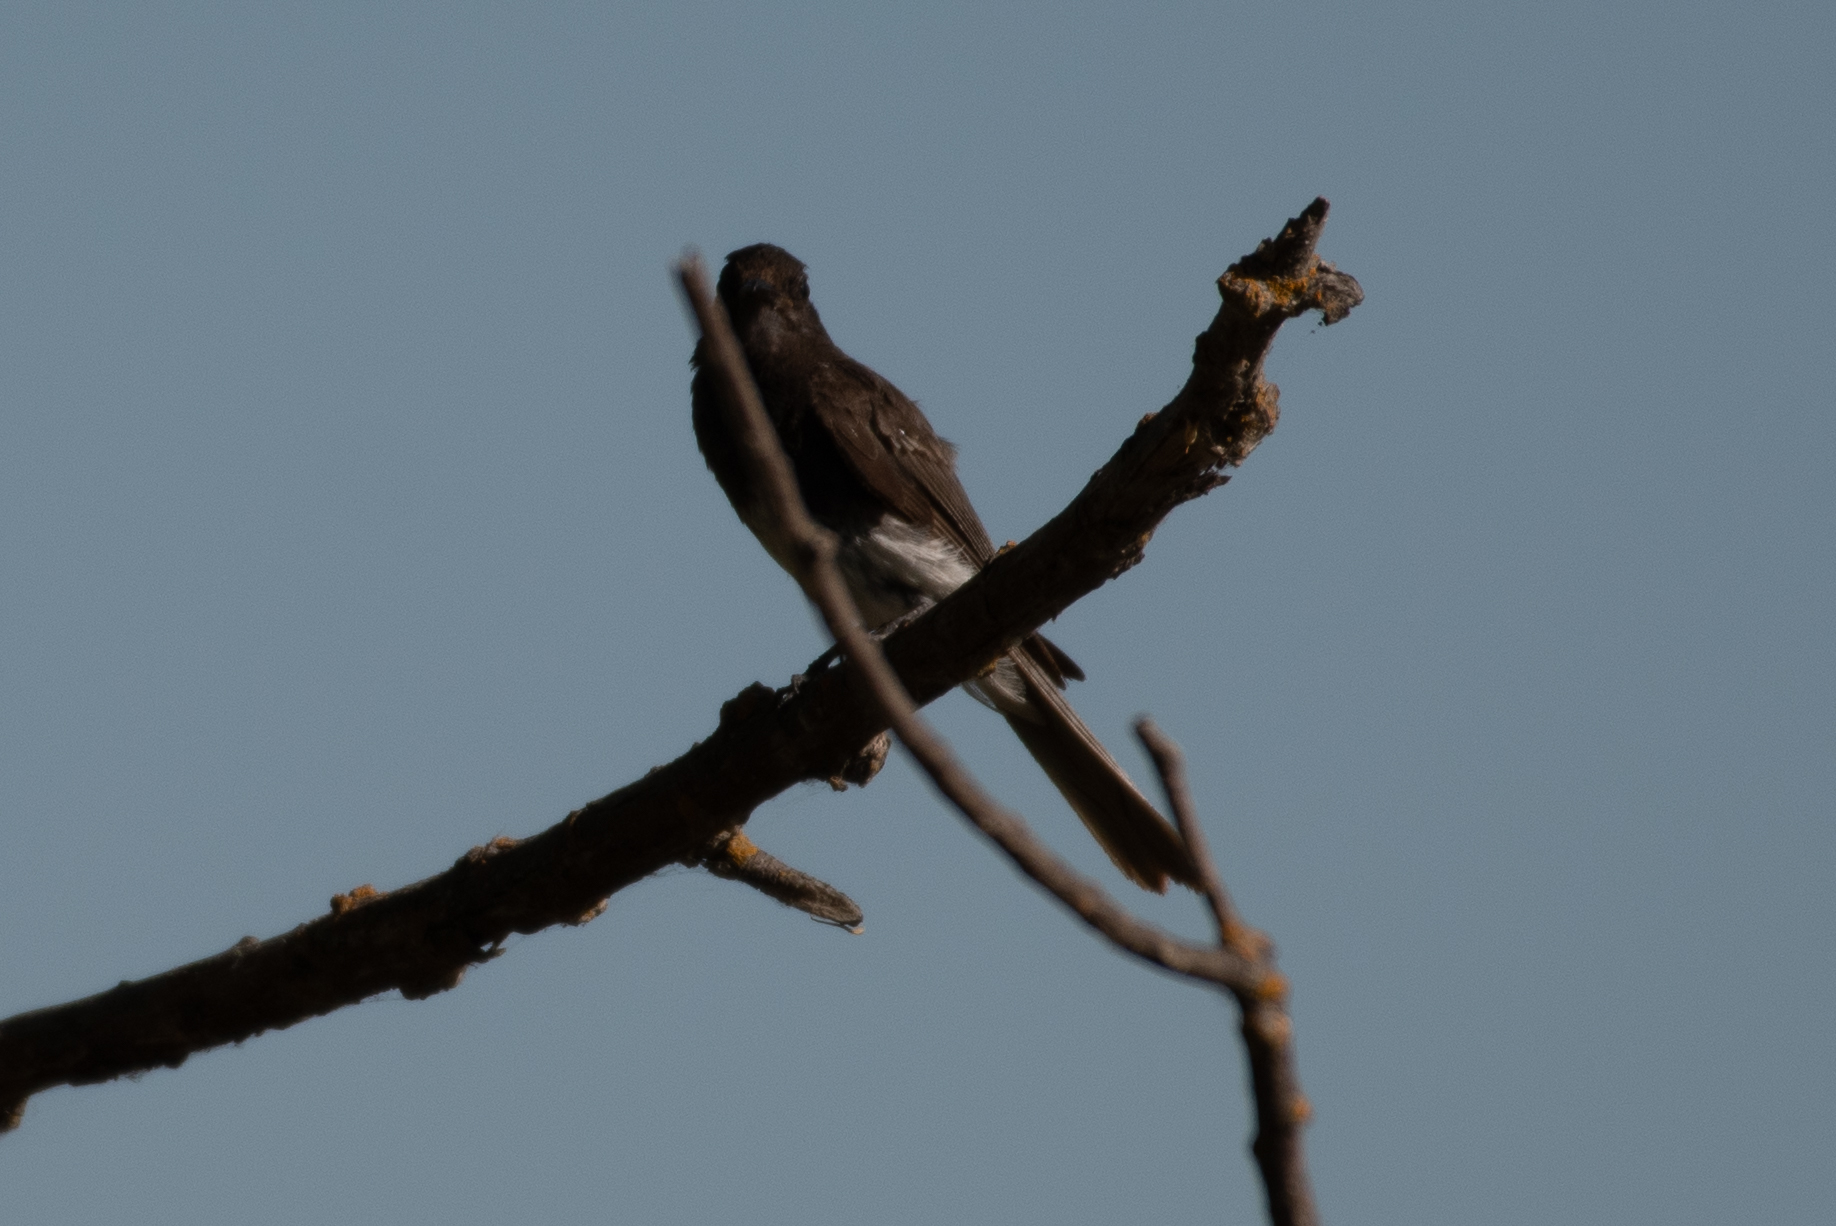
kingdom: Animalia
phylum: Chordata
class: Aves
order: Passeriformes
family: Tyrannidae
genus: Sayornis
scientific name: Sayornis nigricans
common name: Black phoebe
